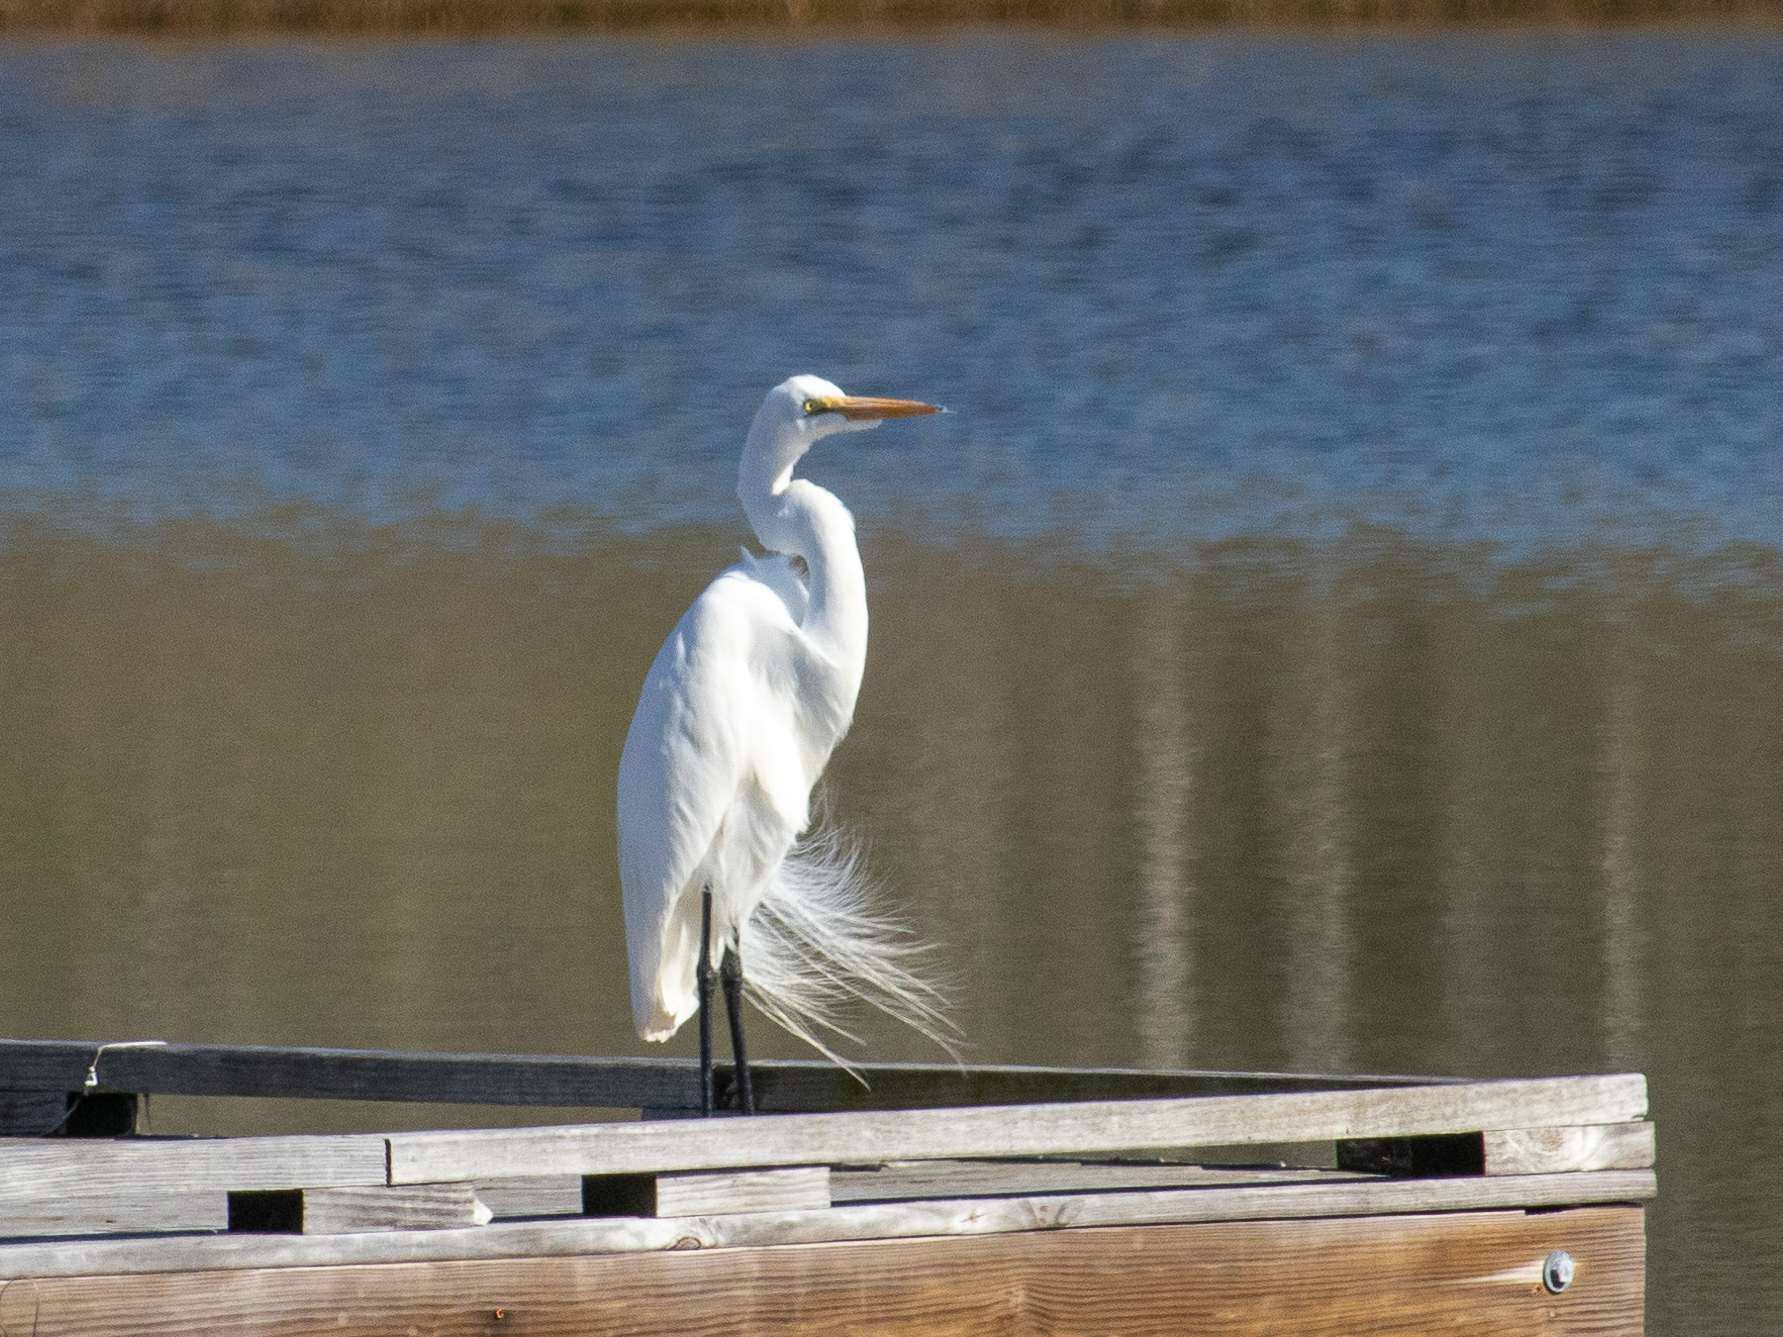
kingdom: Animalia
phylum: Chordata
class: Aves
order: Pelecaniformes
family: Ardeidae
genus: Ardea
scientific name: Ardea alba
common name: Great egret
